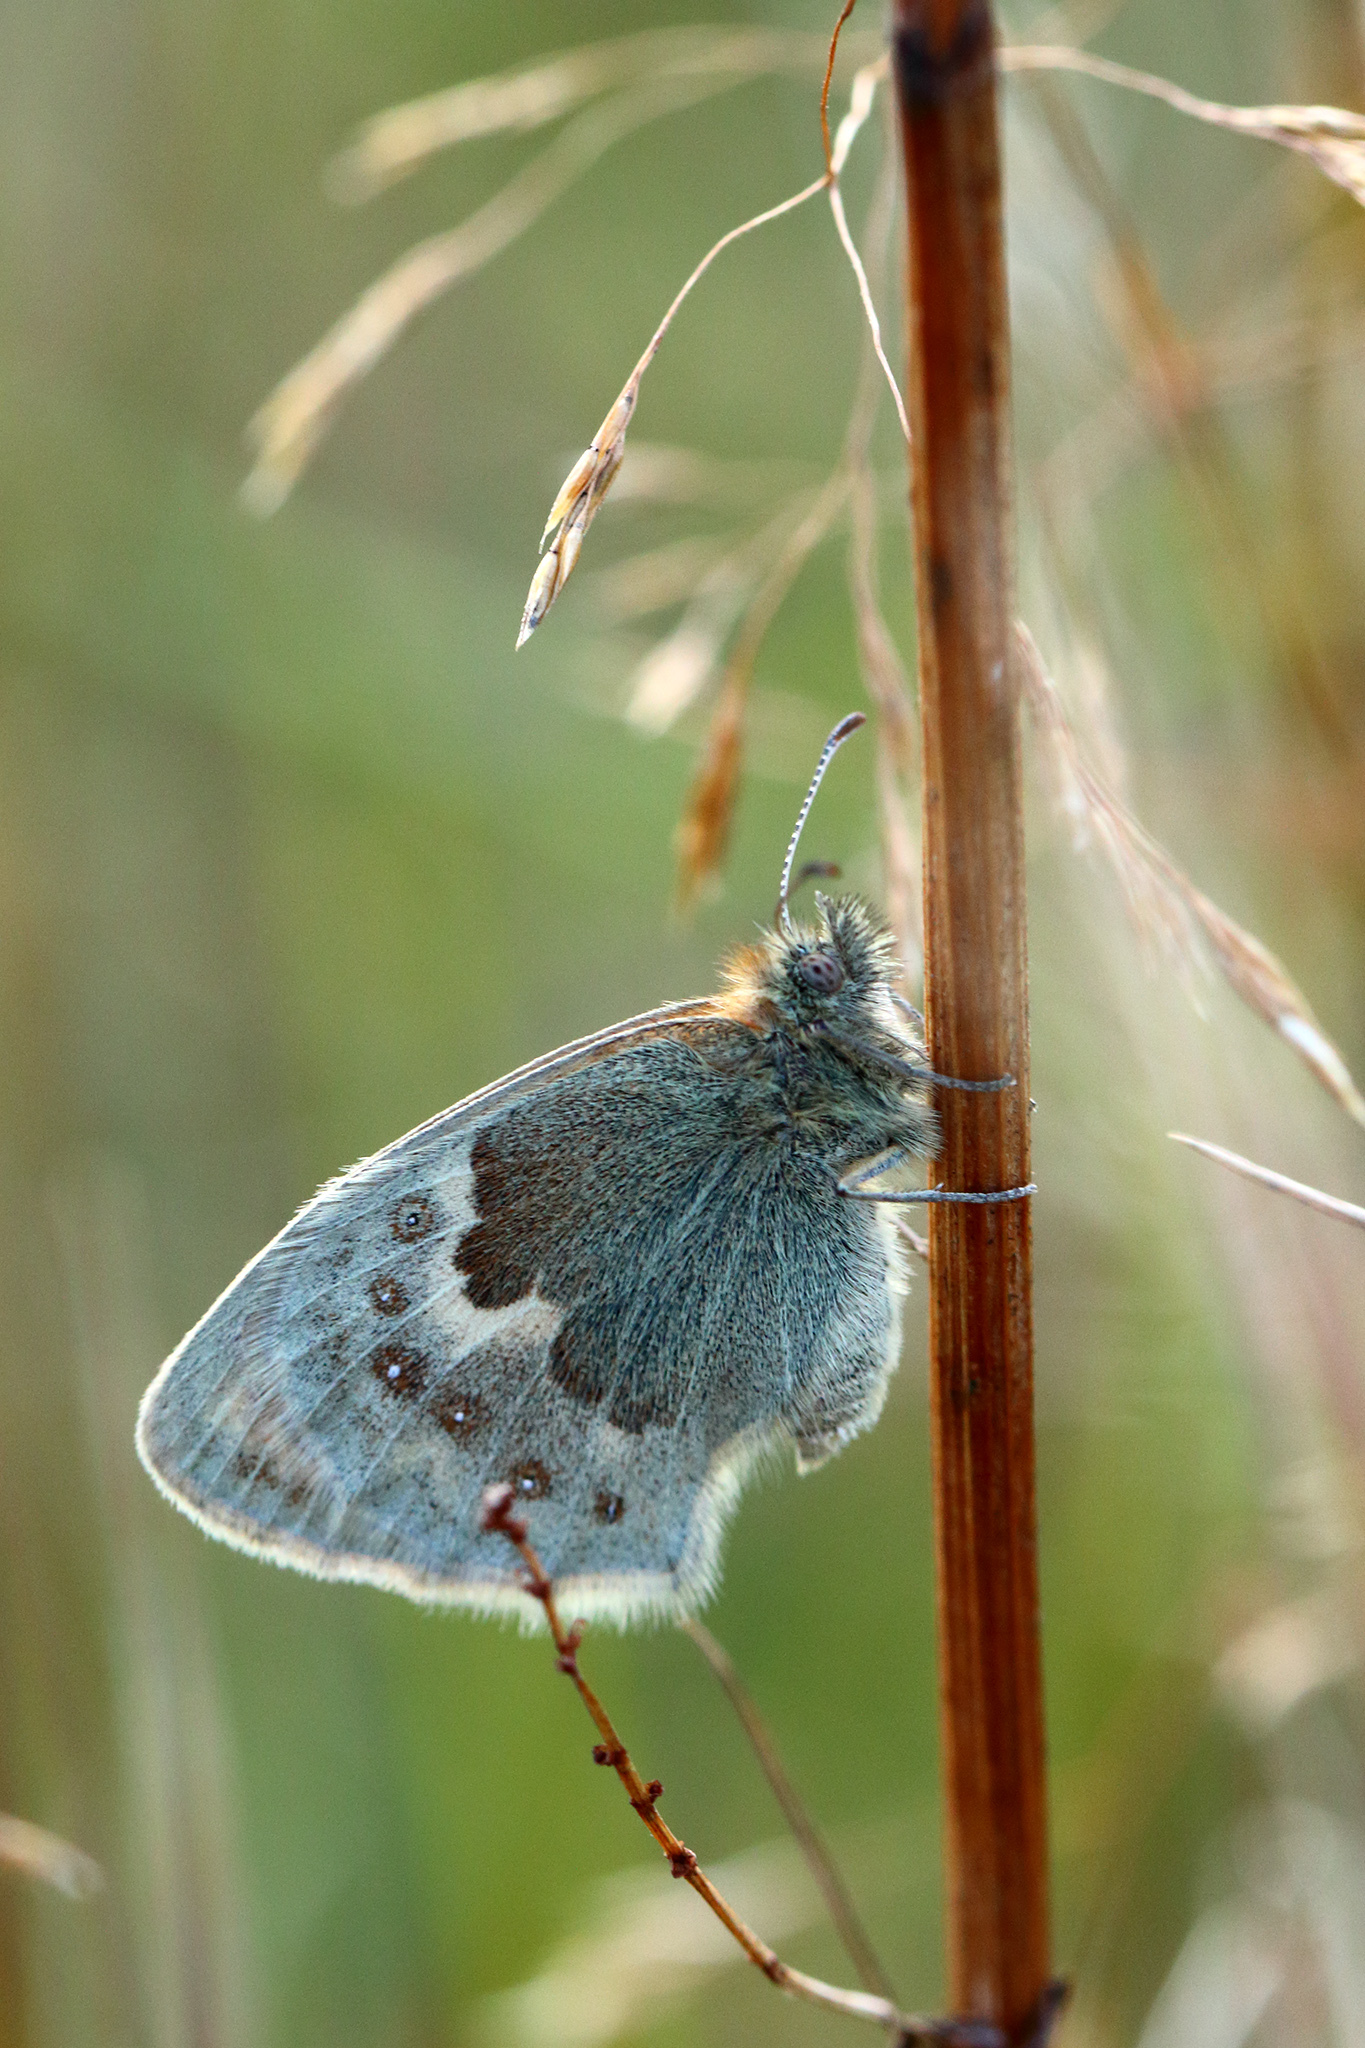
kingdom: Animalia
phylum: Arthropoda
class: Insecta
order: Lepidoptera
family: Nymphalidae
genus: Coenonympha
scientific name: Coenonympha pamphilus
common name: Small heath
